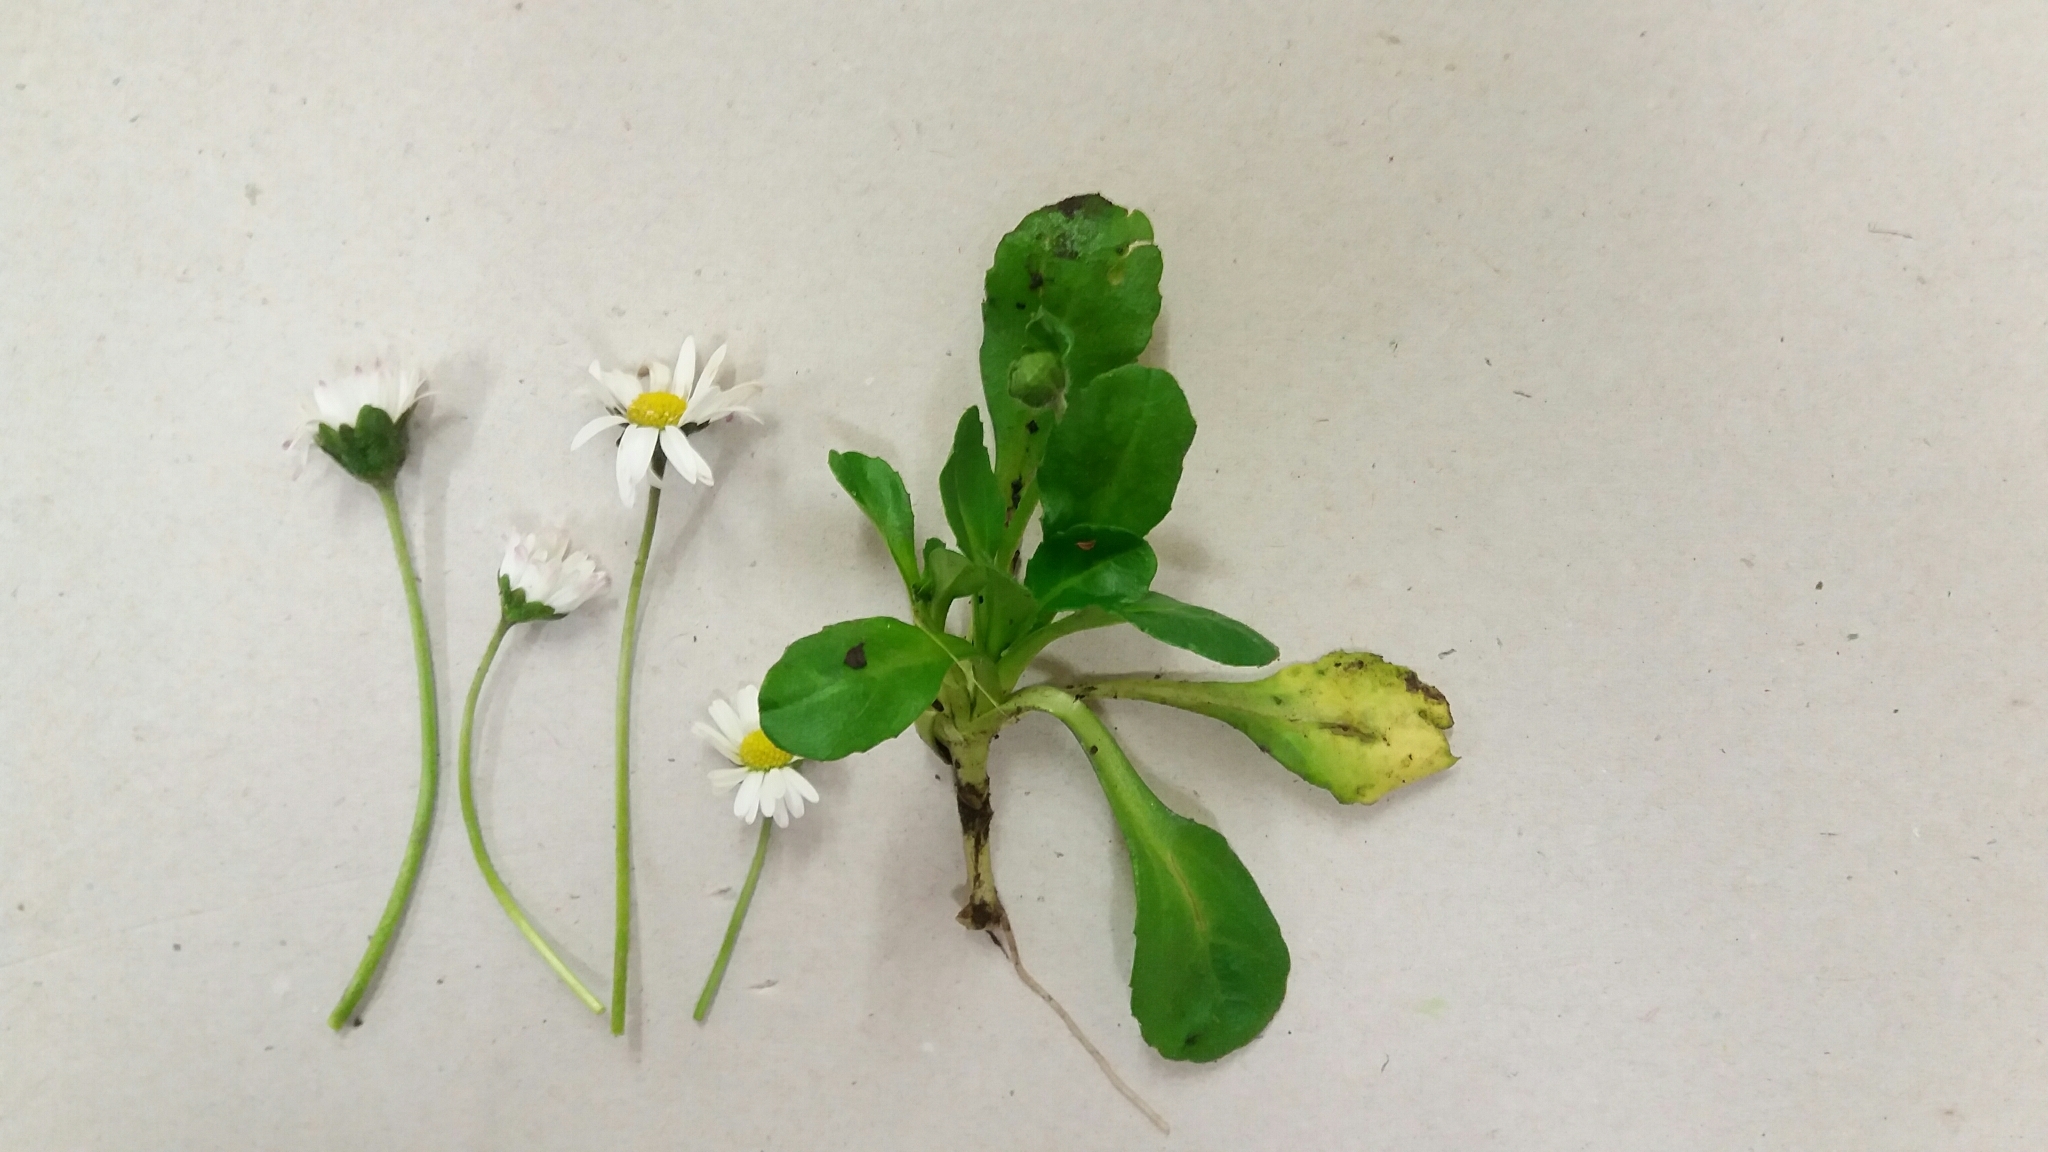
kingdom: Plantae
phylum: Tracheophyta
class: Magnoliopsida
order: Asterales
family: Asteraceae
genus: Bellis
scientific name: Bellis perennis
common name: Lawndaisy
